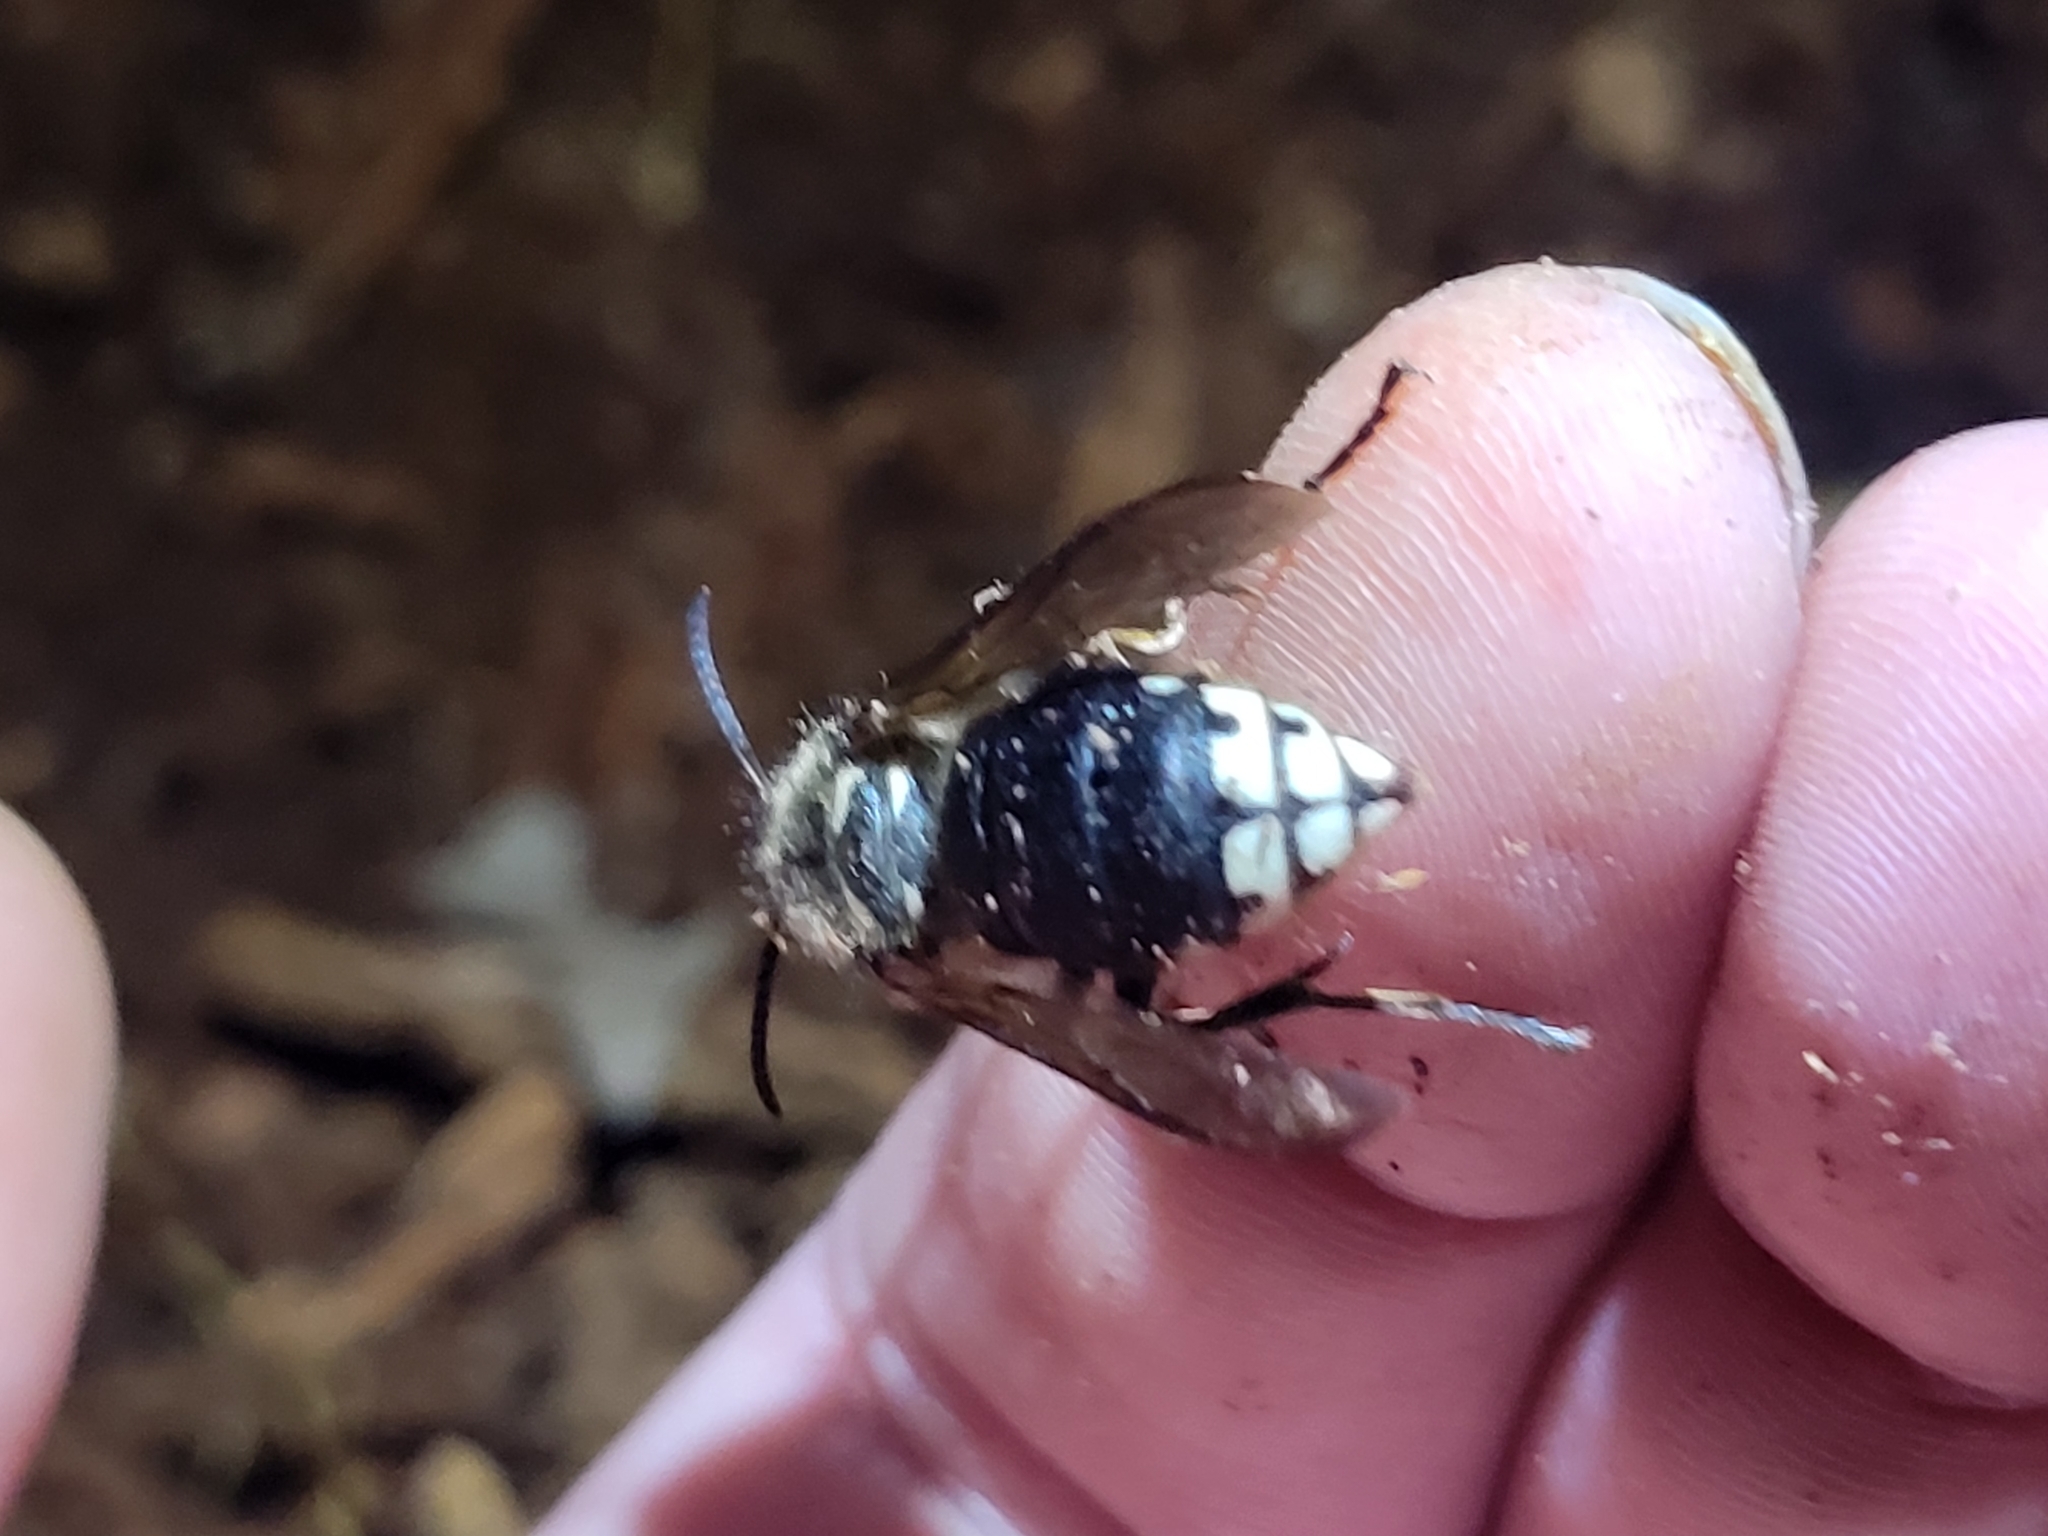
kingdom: Animalia
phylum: Arthropoda
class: Insecta
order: Hymenoptera
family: Vespidae
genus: Dolichovespula
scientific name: Dolichovespula maculata
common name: Bald-faced hornet
